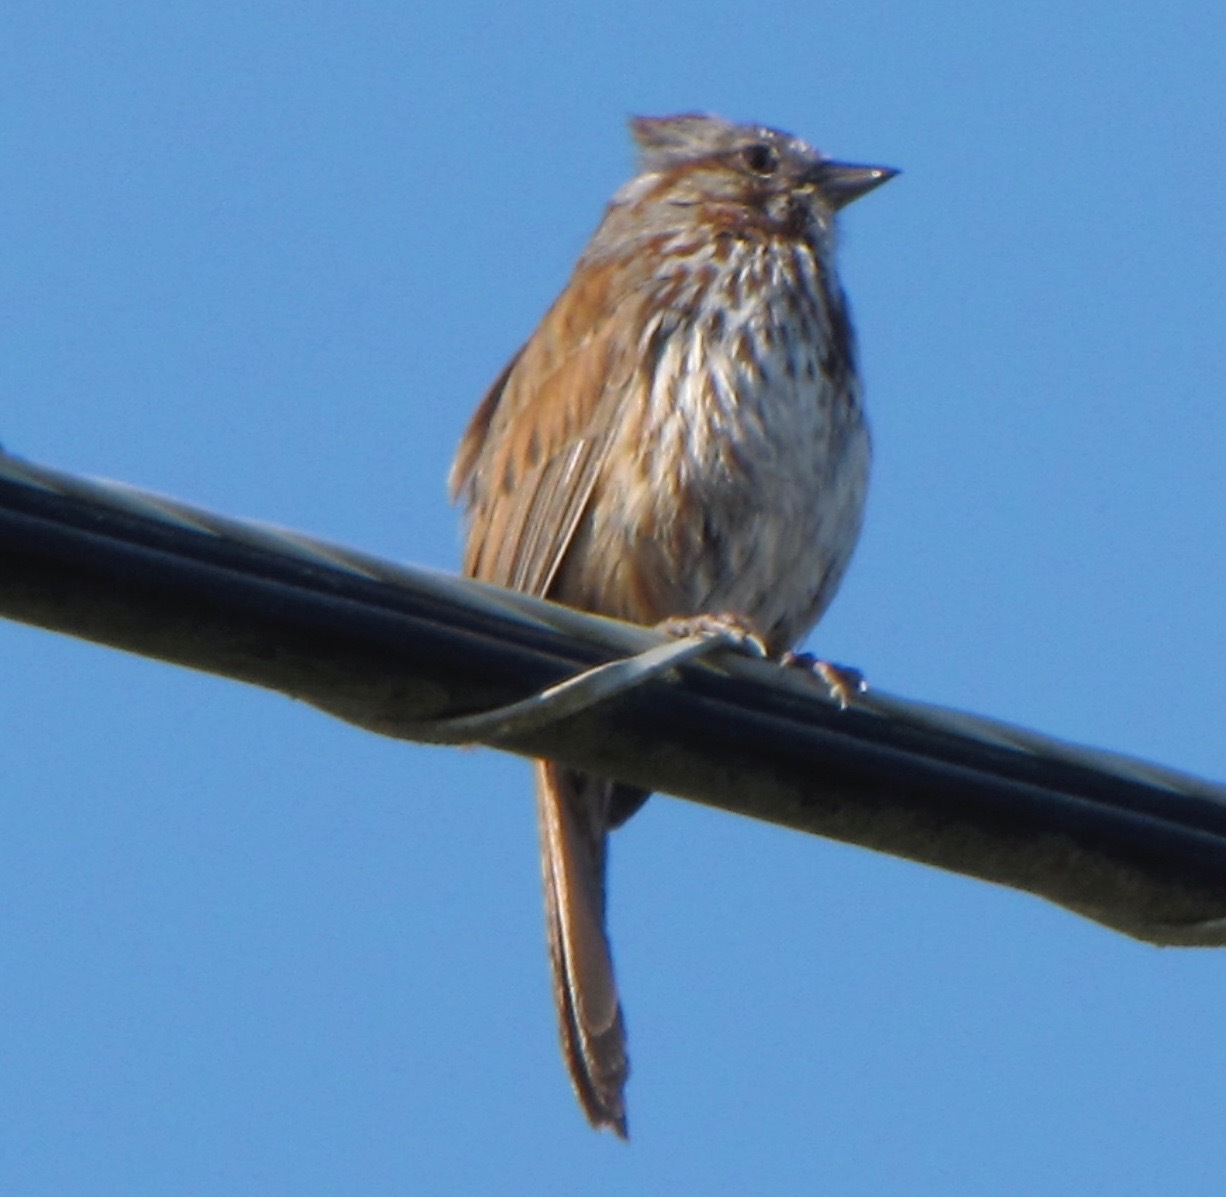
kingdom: Animalia
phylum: Chordata
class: Aves
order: Passeriformes
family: Passerellidae
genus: Melospiza
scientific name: Melospiza melodia
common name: Song sparrow
